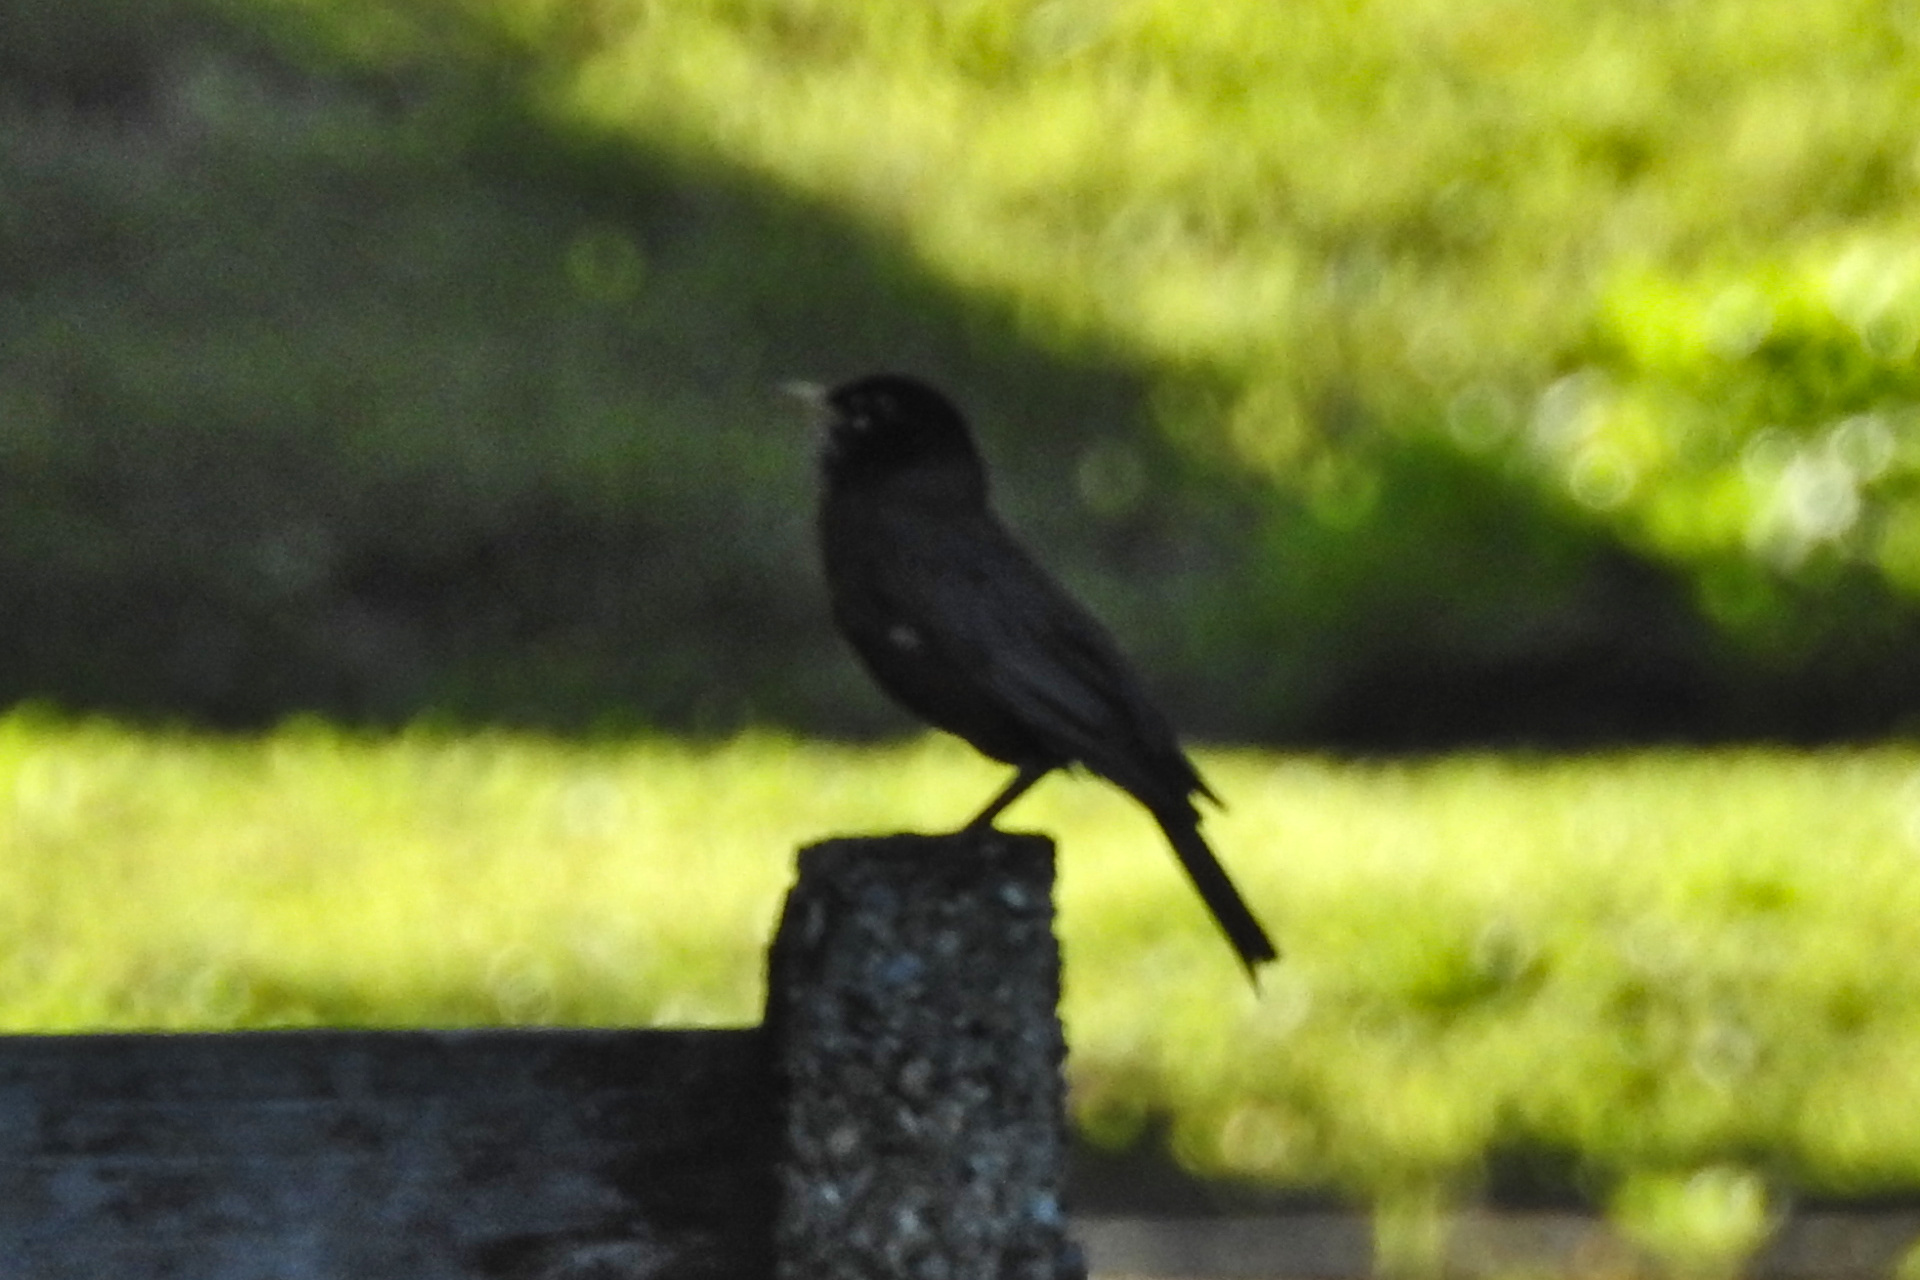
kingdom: Animalia
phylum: Chordata
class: Aves
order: Passeriformes
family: Turdidae
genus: Turdus
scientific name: Turdus migratorius
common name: American robin
